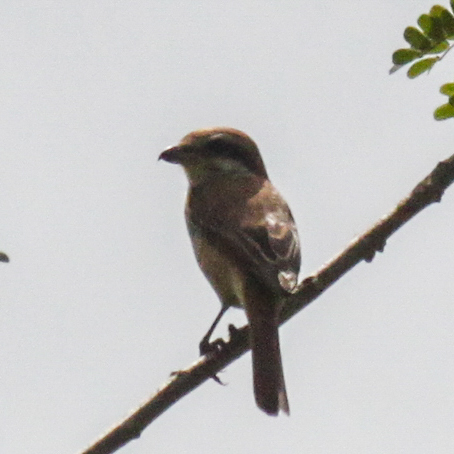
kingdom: Animalia
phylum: Chordata
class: Aves
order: Passeriformes
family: Laniidae
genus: Lanius
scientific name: Lanius cristatus
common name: Brown shrike
